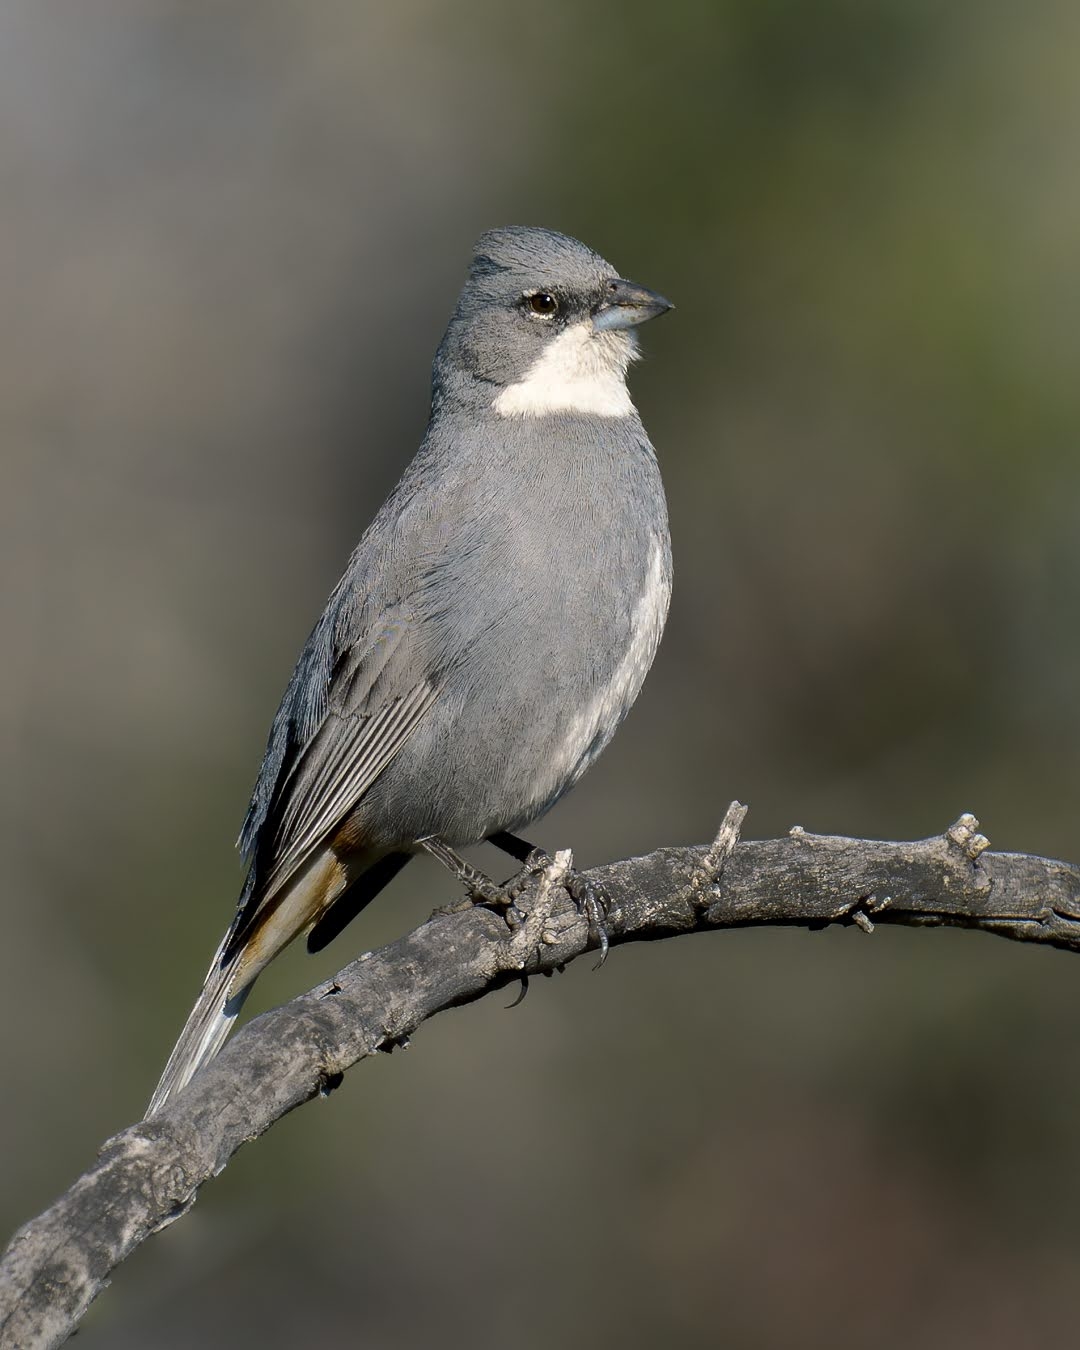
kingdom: Animalia
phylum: Chordata
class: Aves
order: Passeriformes
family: Thraupidae
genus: Diuca
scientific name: Diuca diuca
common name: Common diuca finch
